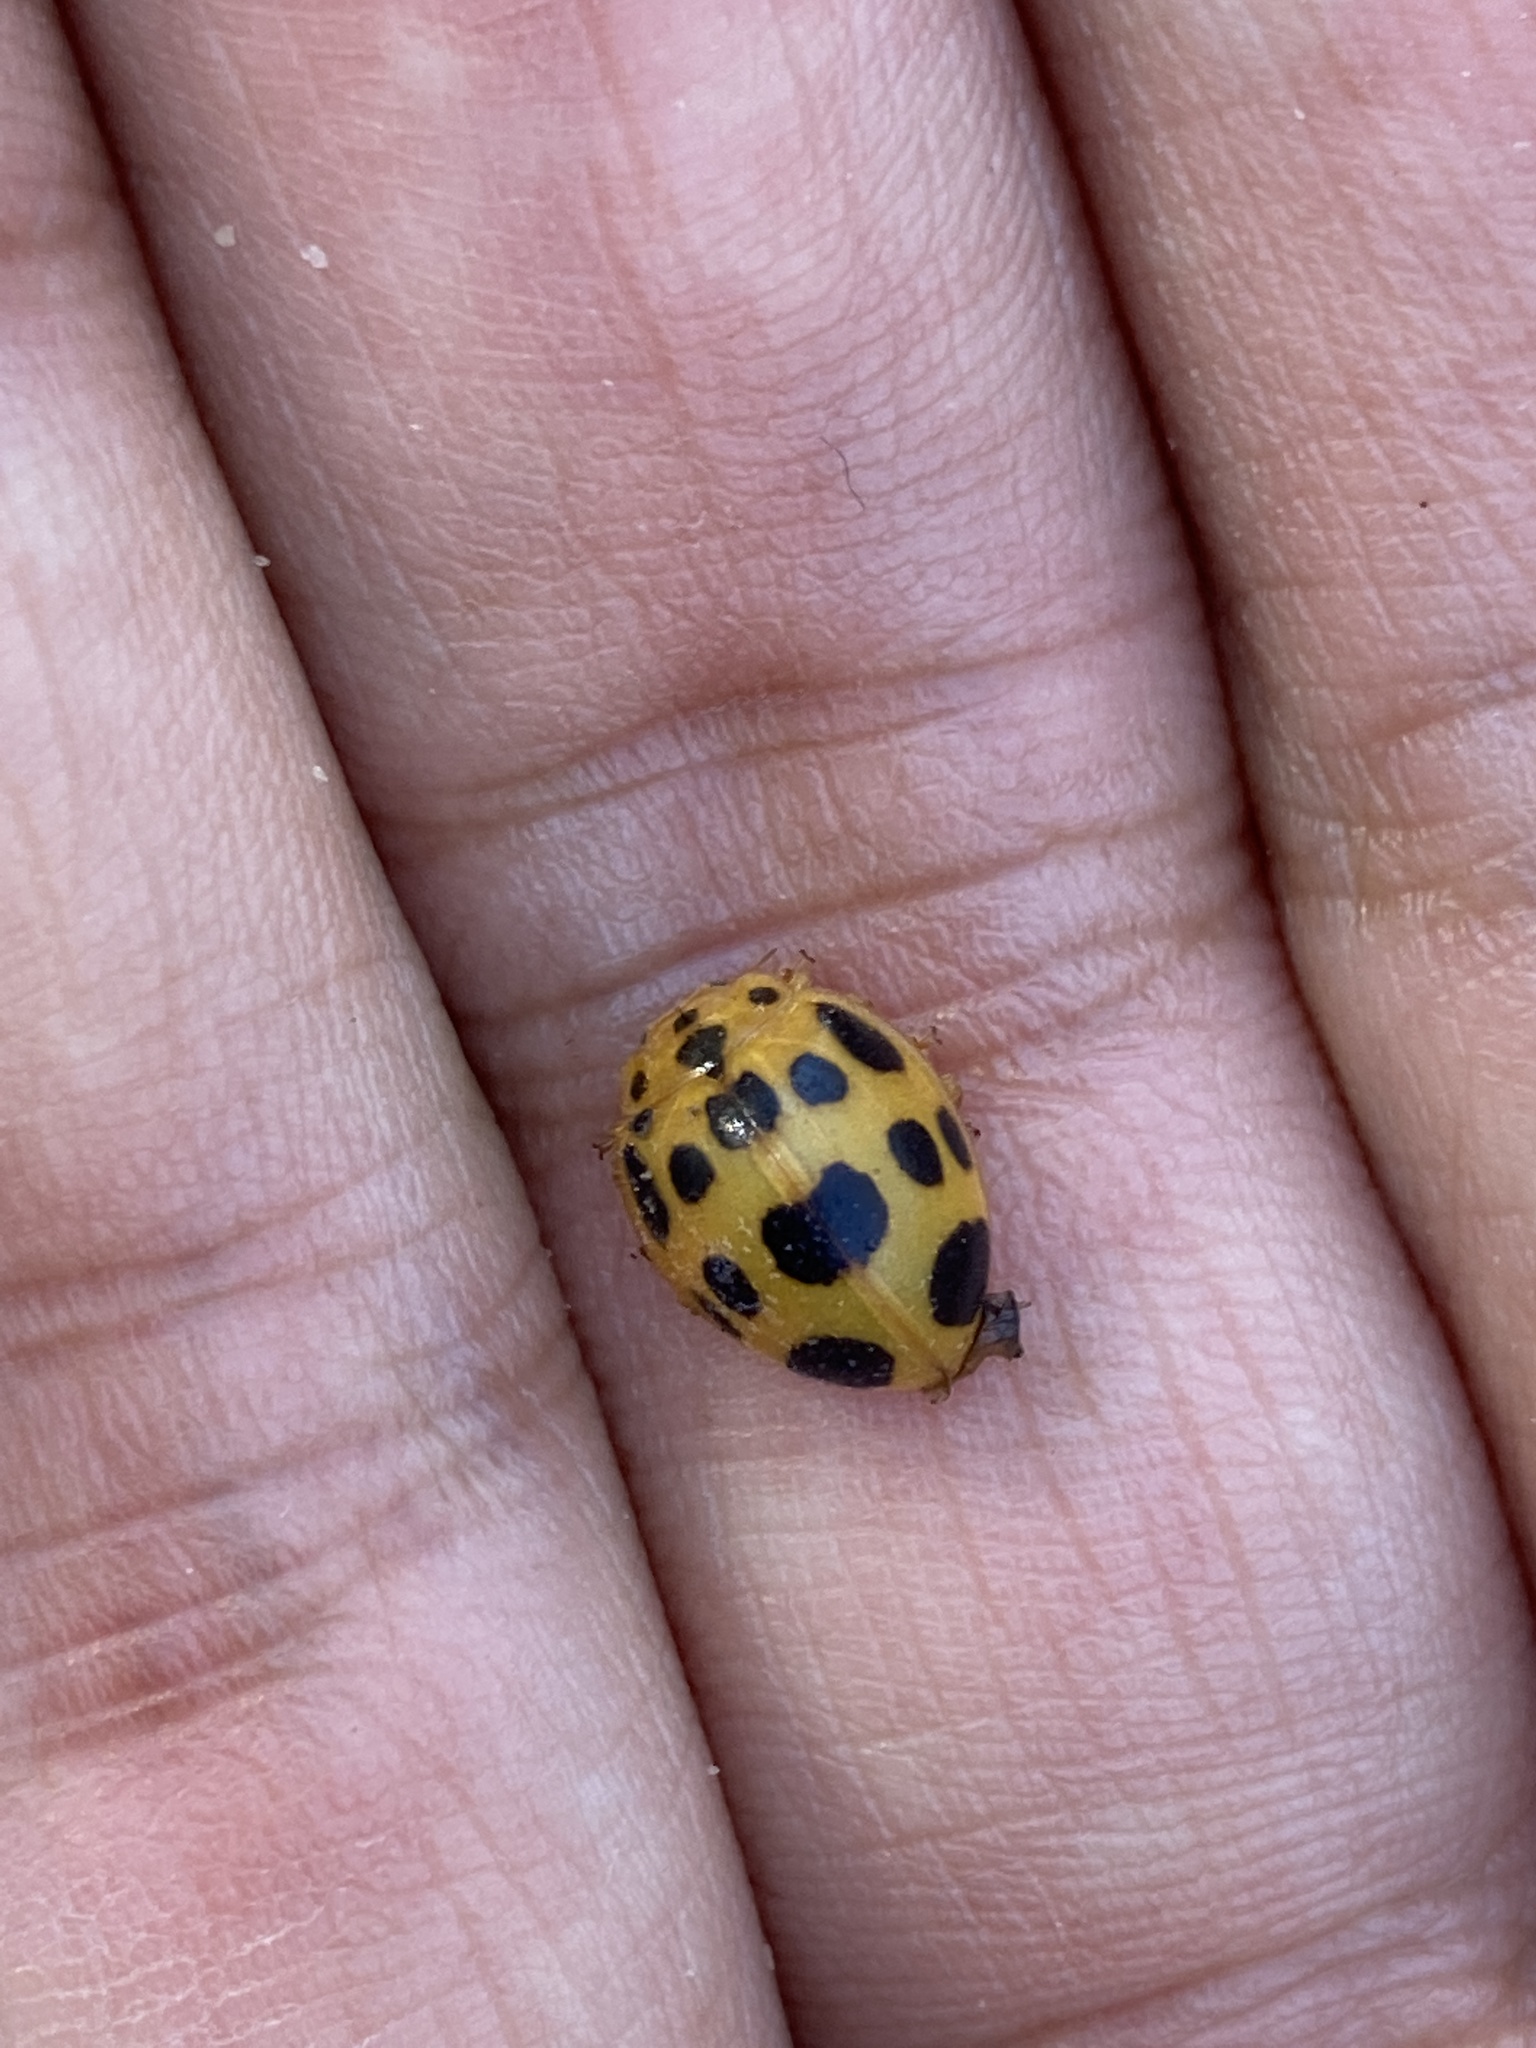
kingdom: Animalia
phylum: Arthropoda
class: Insecta
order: Coleoptera
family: Coccinellidae
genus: Epilachna
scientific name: Epilachna borealis
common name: Squash beetle
